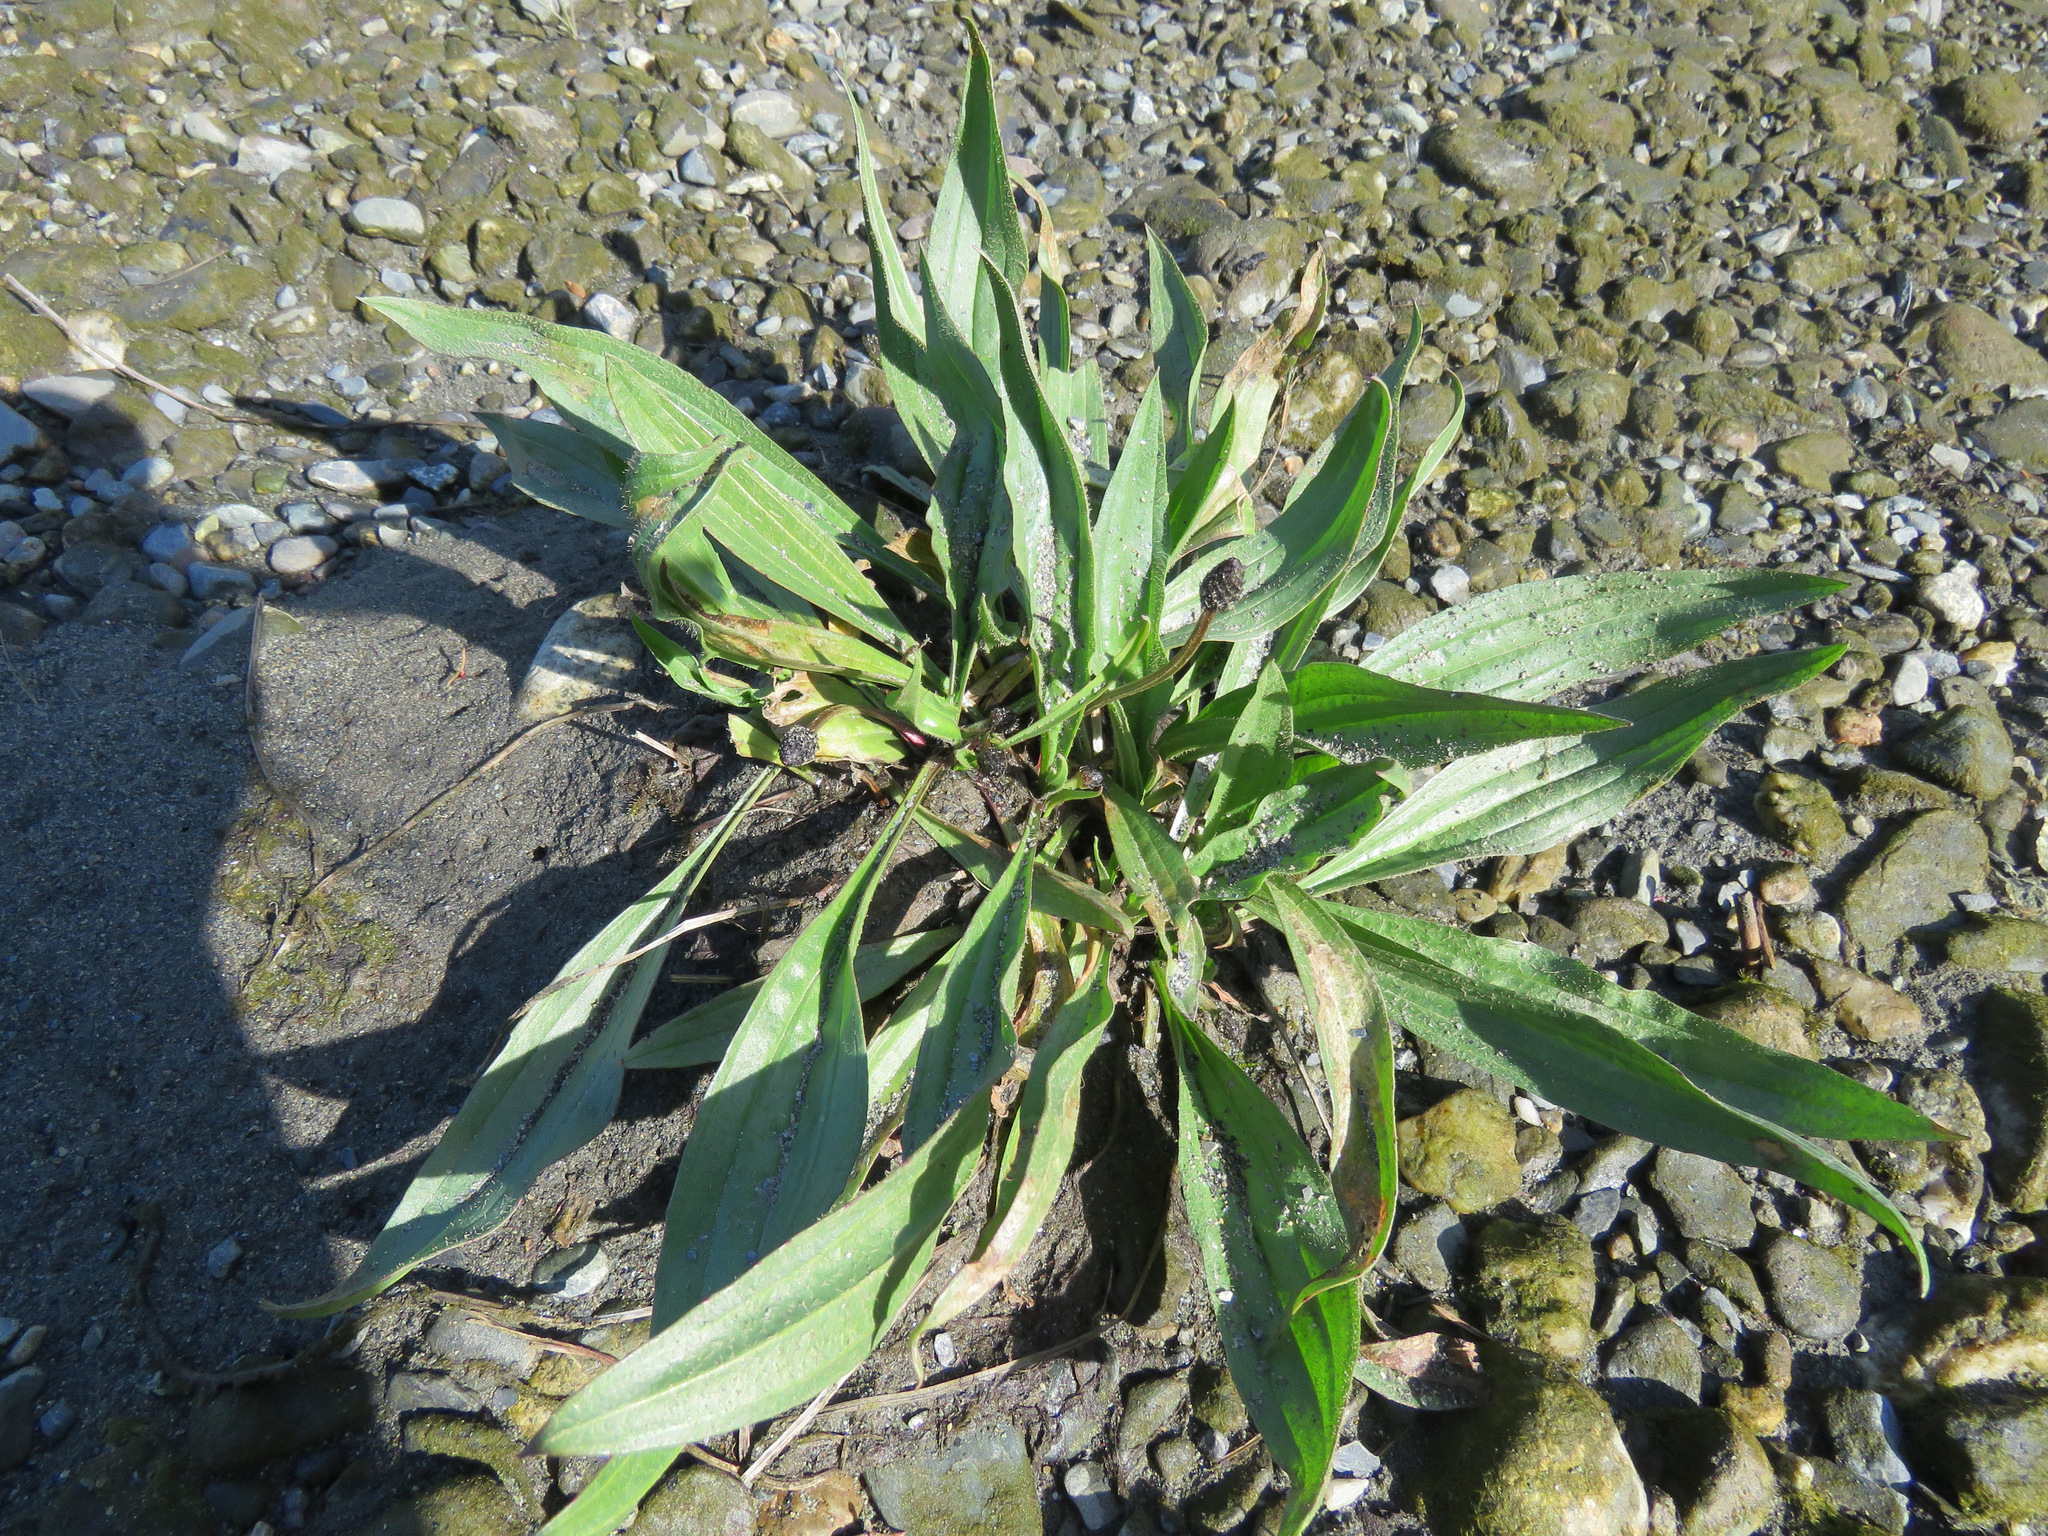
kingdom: Plantae
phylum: Tracheophyta
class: Magnoliopsida
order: Lamiales
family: Plantaginaceae
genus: Plantago
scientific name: Plantago lanceolata
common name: Ribwort plantain
